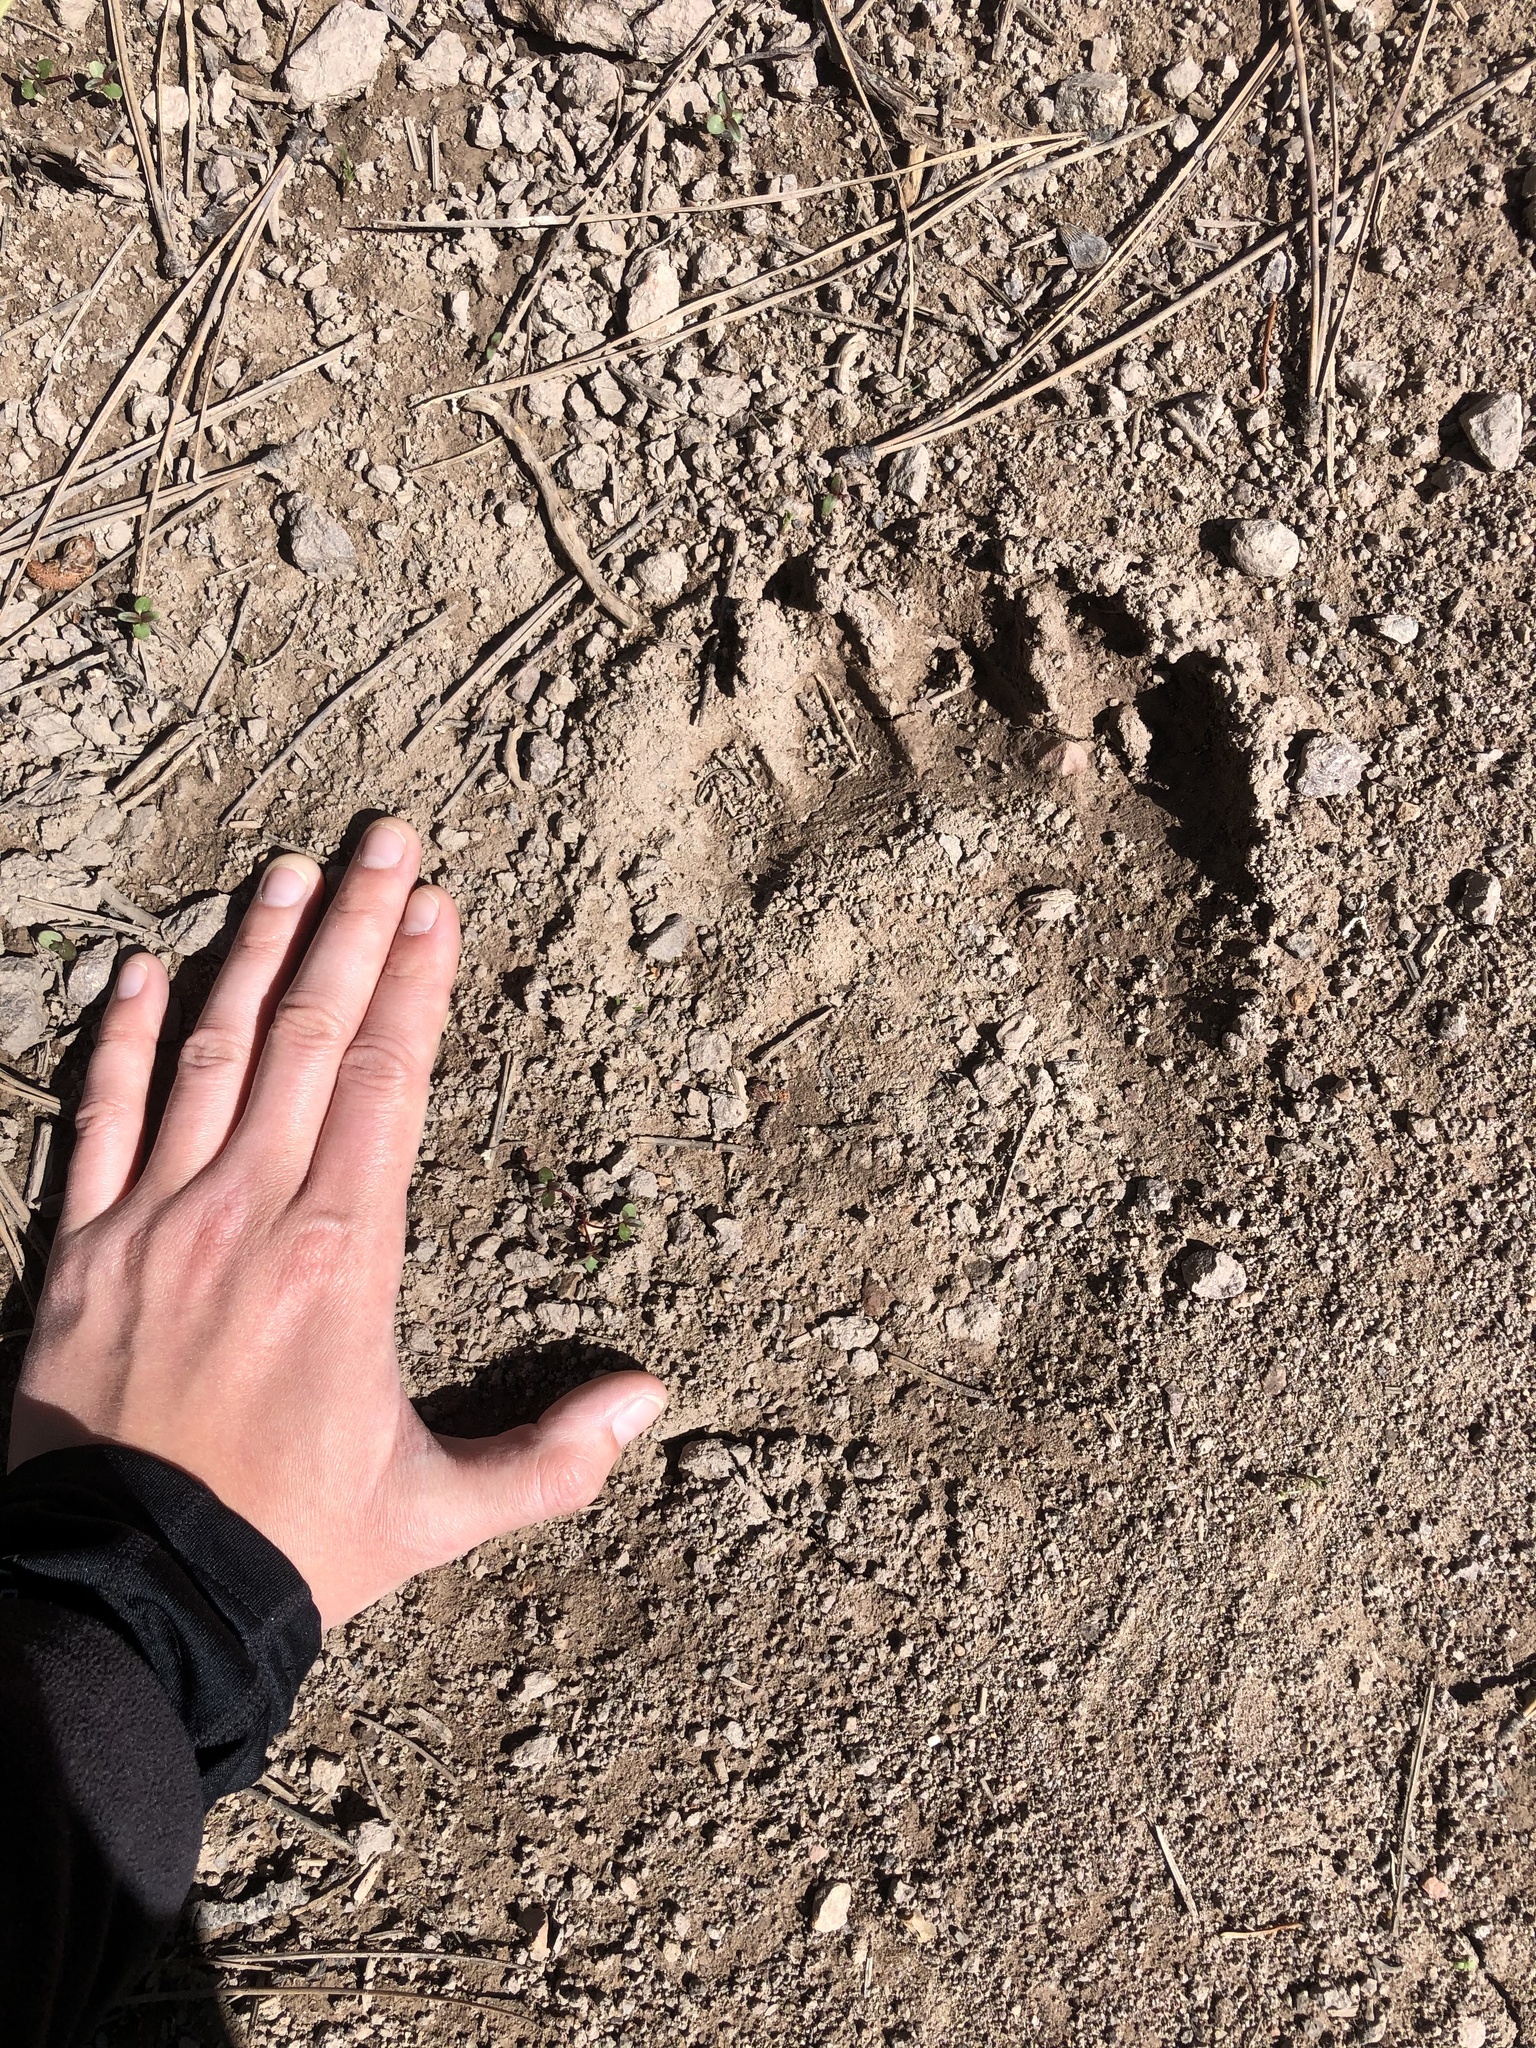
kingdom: Animalia
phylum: Chordata
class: Mammalia
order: Carnivora
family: Ursidae
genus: Ursus
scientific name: Ursus americanus
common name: American black bear
